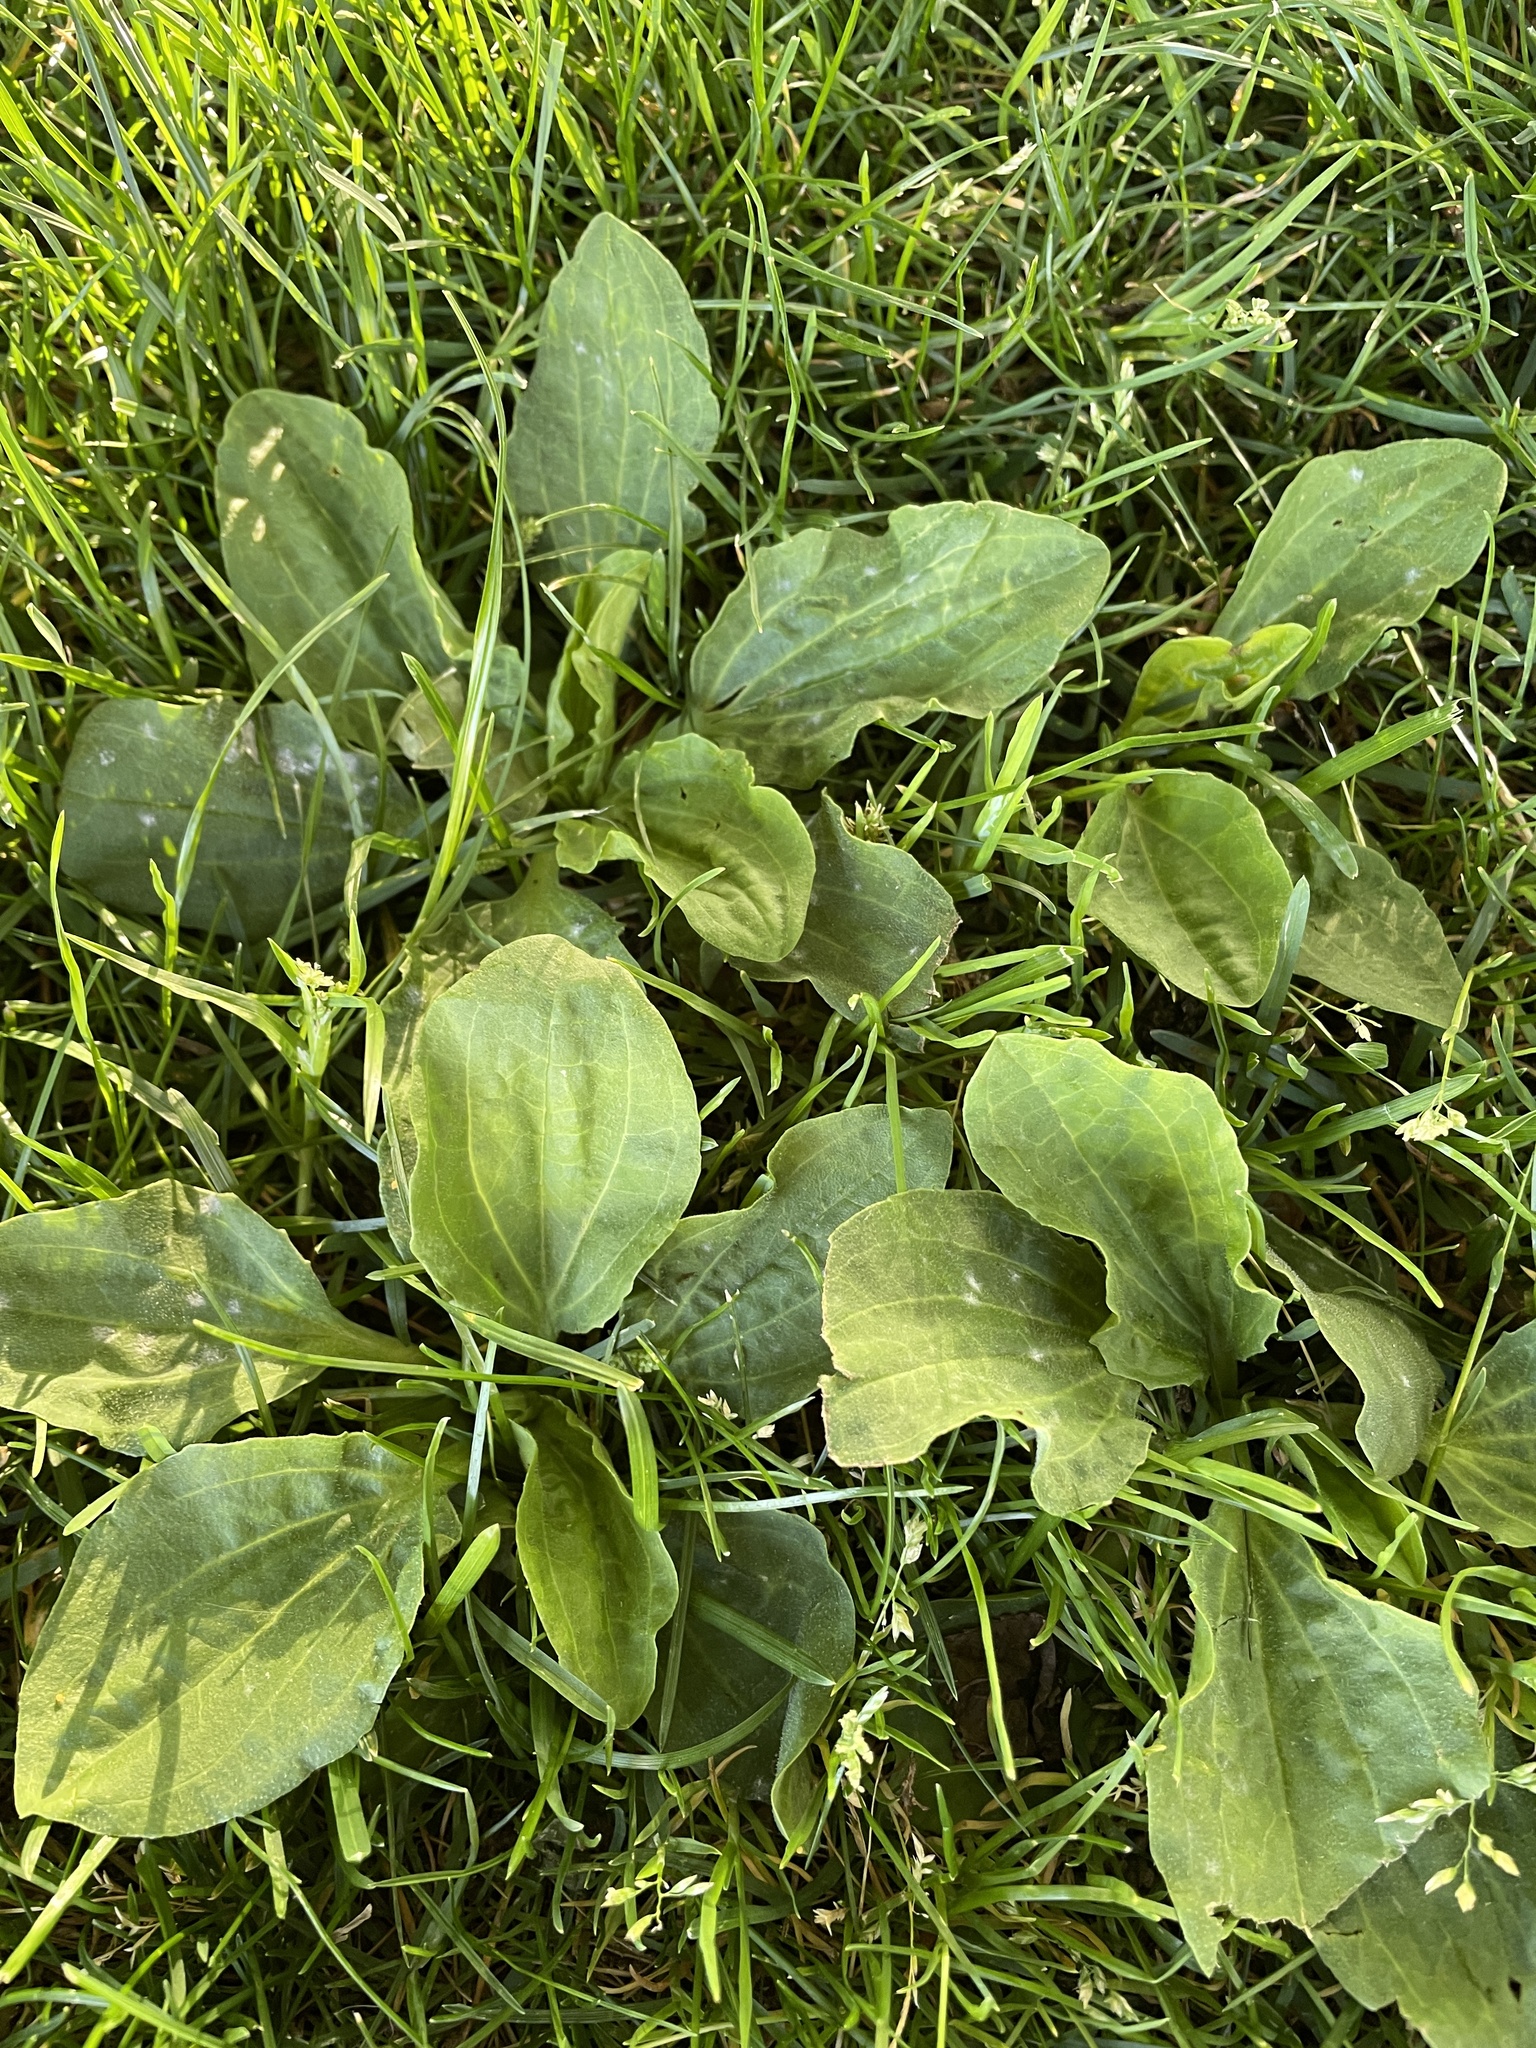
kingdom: Plantae
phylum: Tracheophyta
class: Magnoliopsida
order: Lamiales
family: Plantaginaceae
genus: Plantago
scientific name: Plantago major
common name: Common plantain
